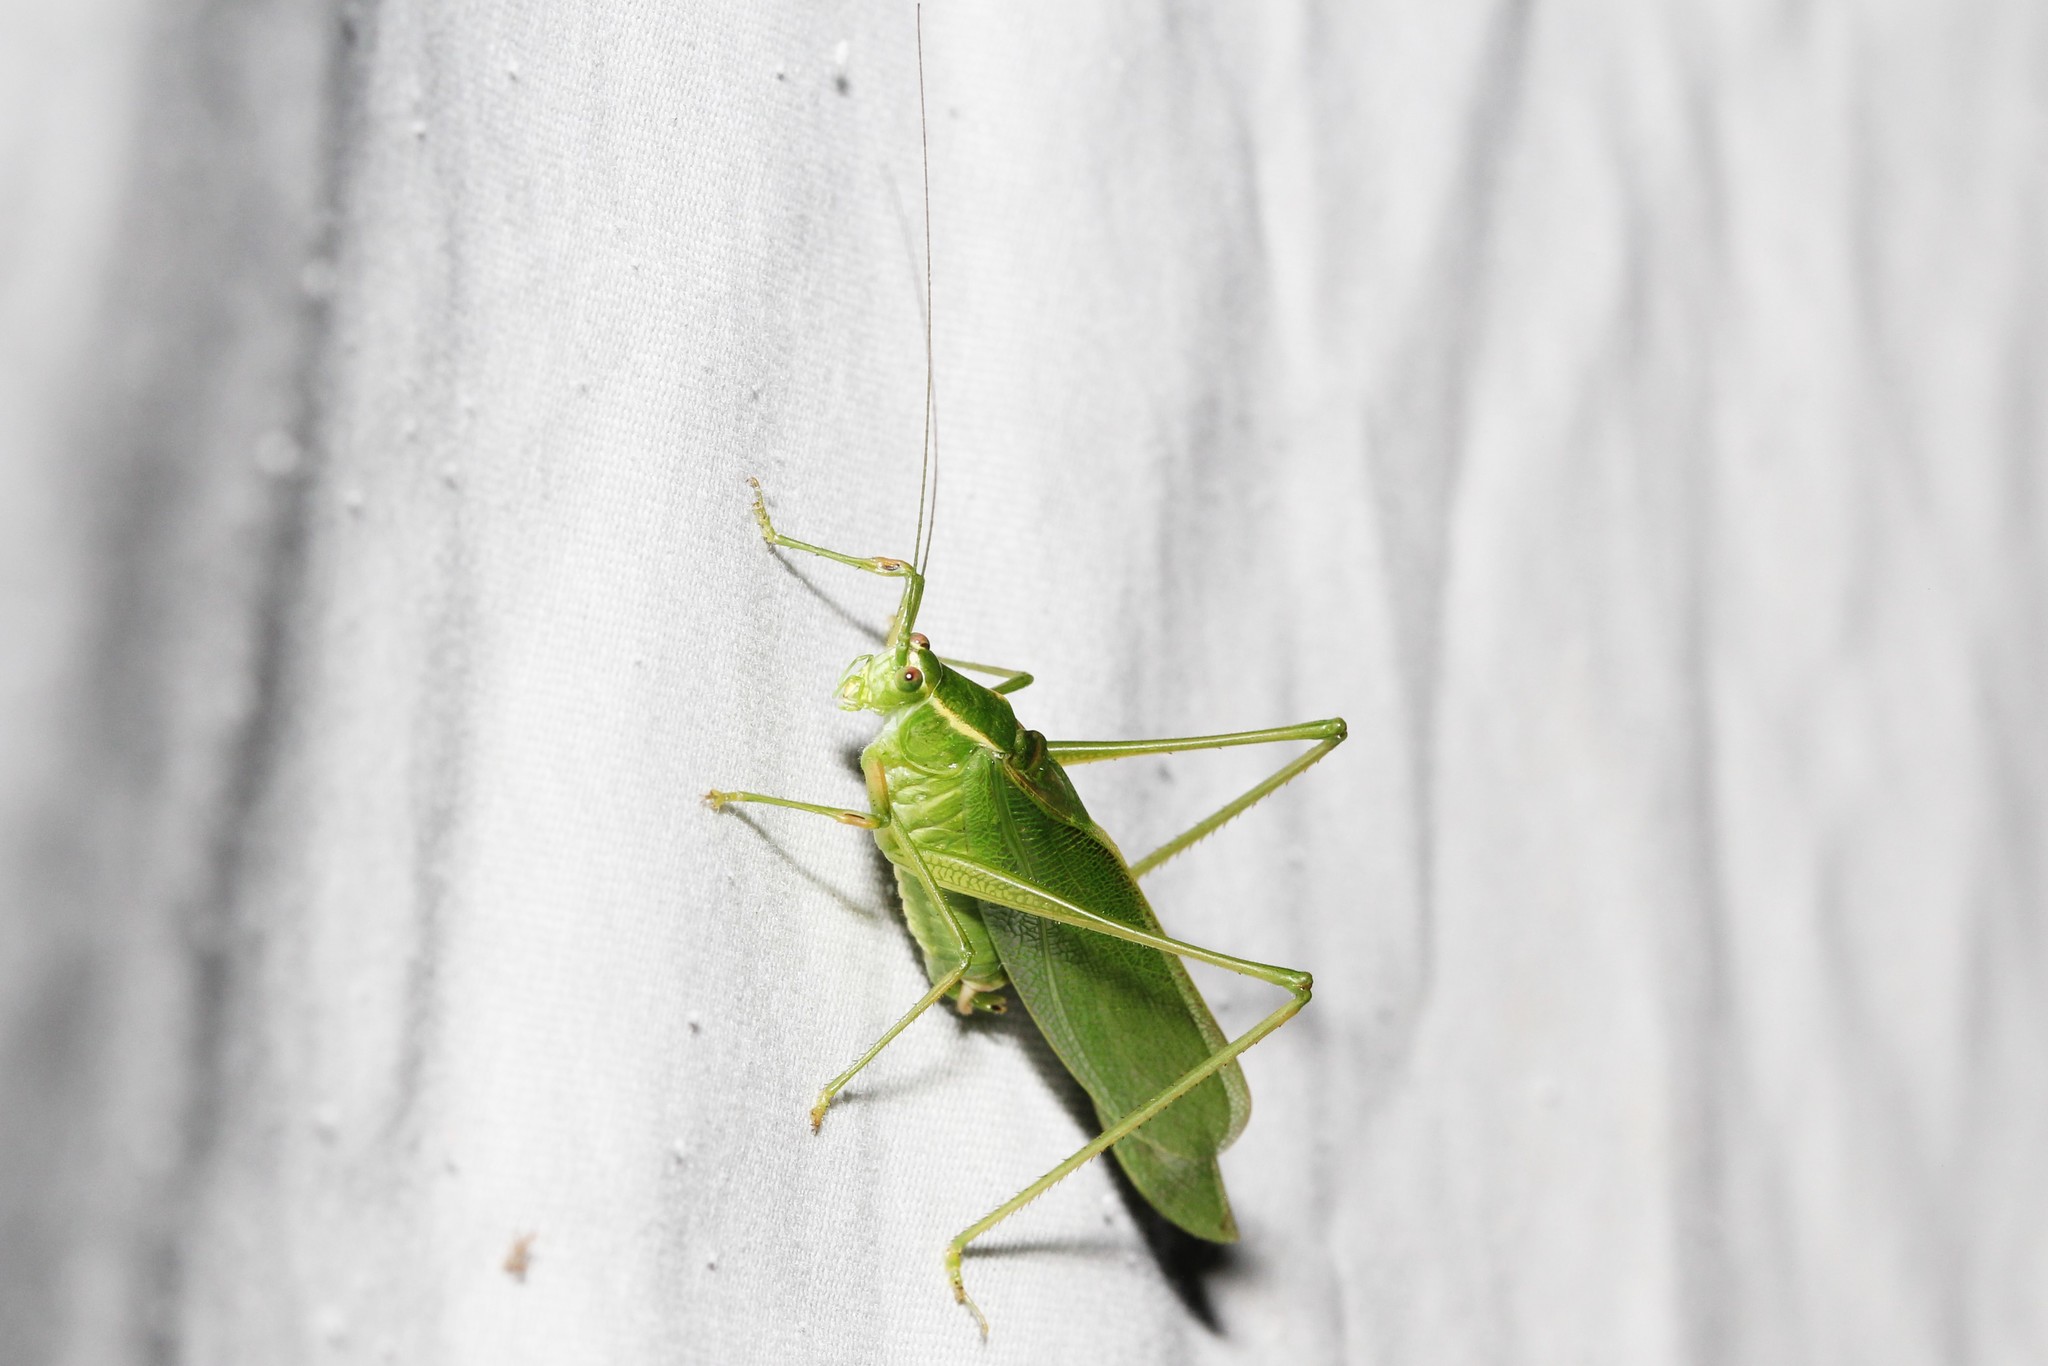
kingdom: Animalia
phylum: Arthropoda
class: Insecta
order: Orthoptera
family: Tettigoniidae
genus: Scudderia
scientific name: Scudderia septentrionalis
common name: Northern bush-katydid
